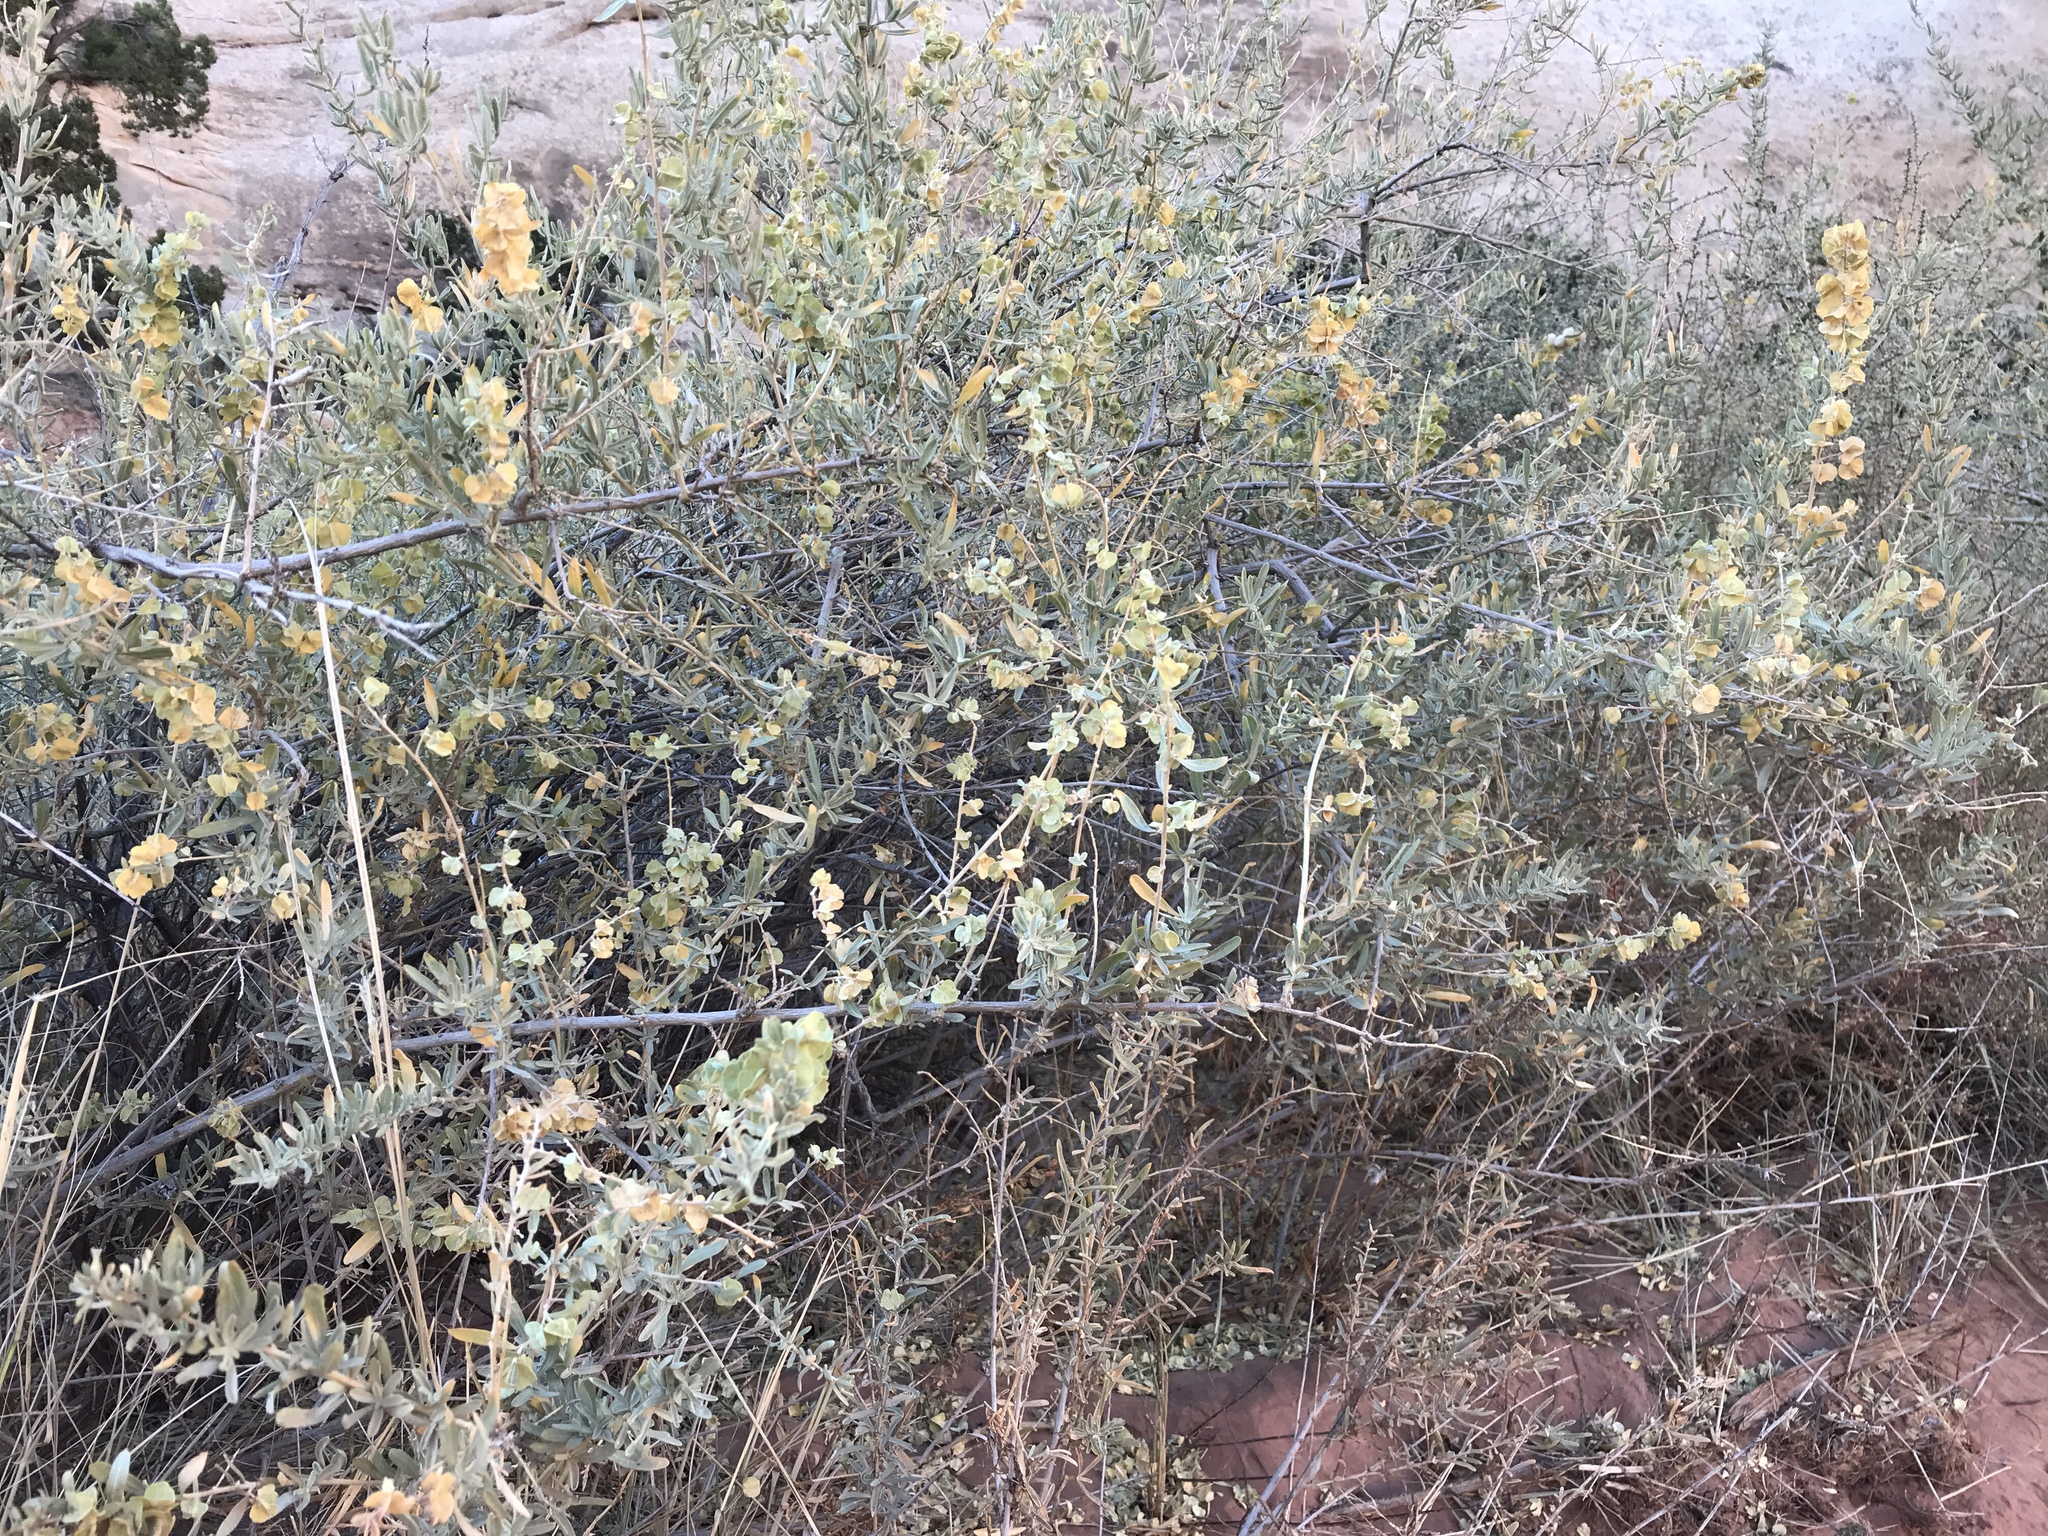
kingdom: Plantae
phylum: Tracheophyta
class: Magnoliopsida
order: Caryophyllales
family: Amaranthaceae
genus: Atriplex
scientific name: Atriplex canescens
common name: Four-wing saltbush
